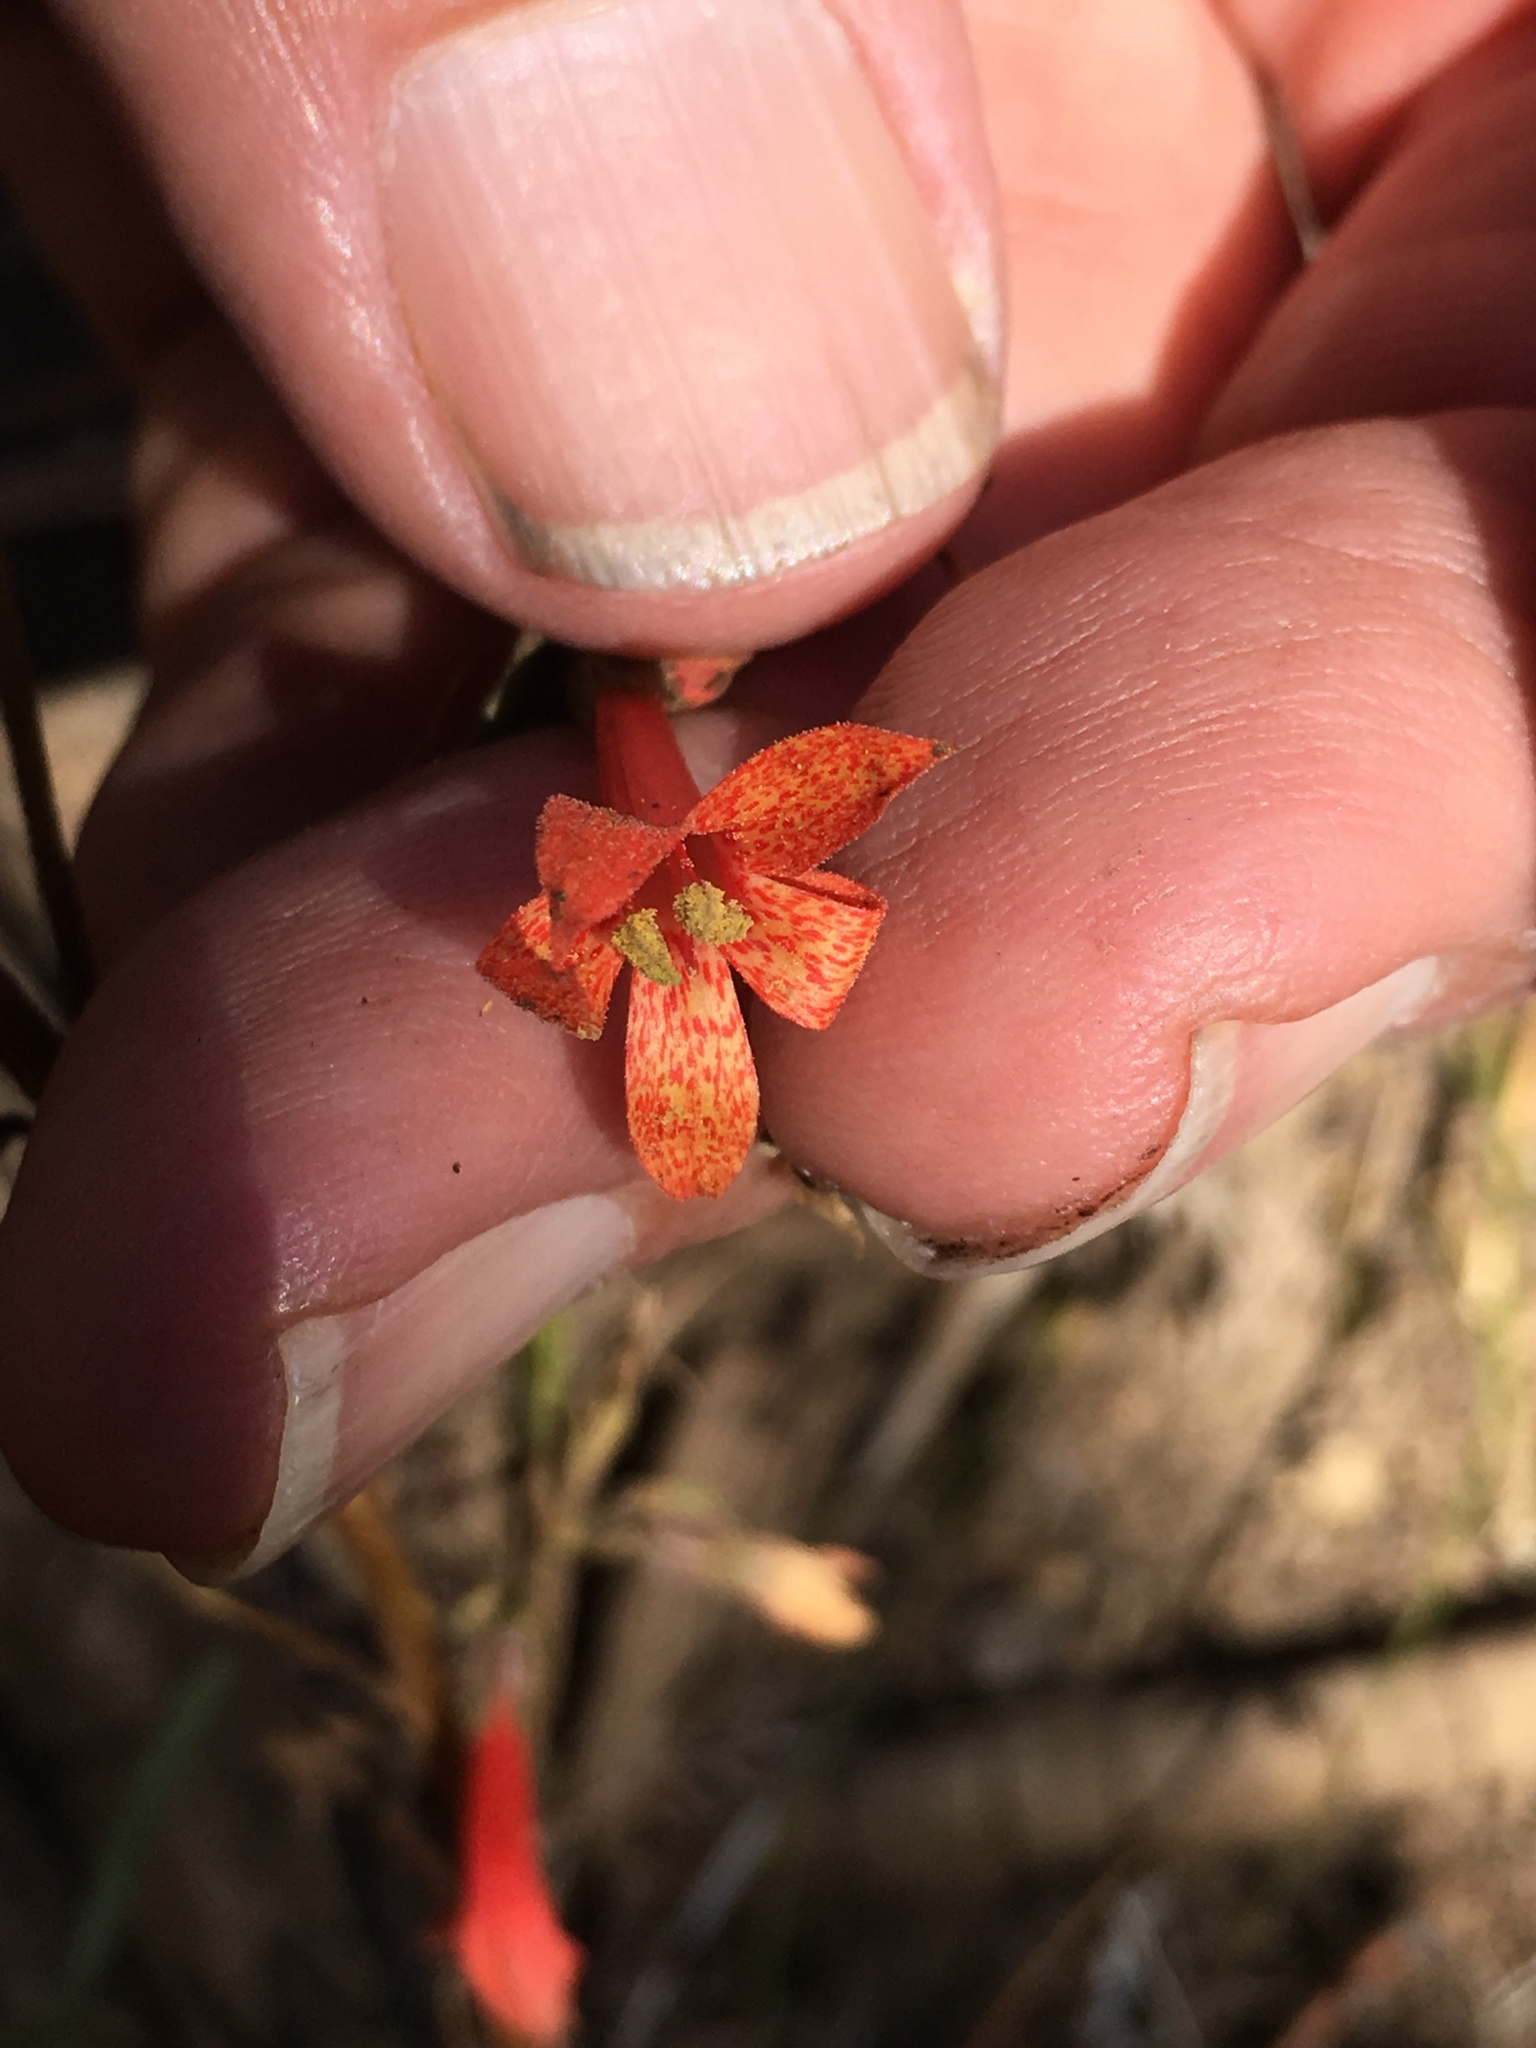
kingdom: Plantae
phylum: Tracheophyta
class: Magnoliopsida
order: Ericales
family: Polemoniaceae
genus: Ipomopsis
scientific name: Ipomopsis aggregata
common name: Scarlet gilia
